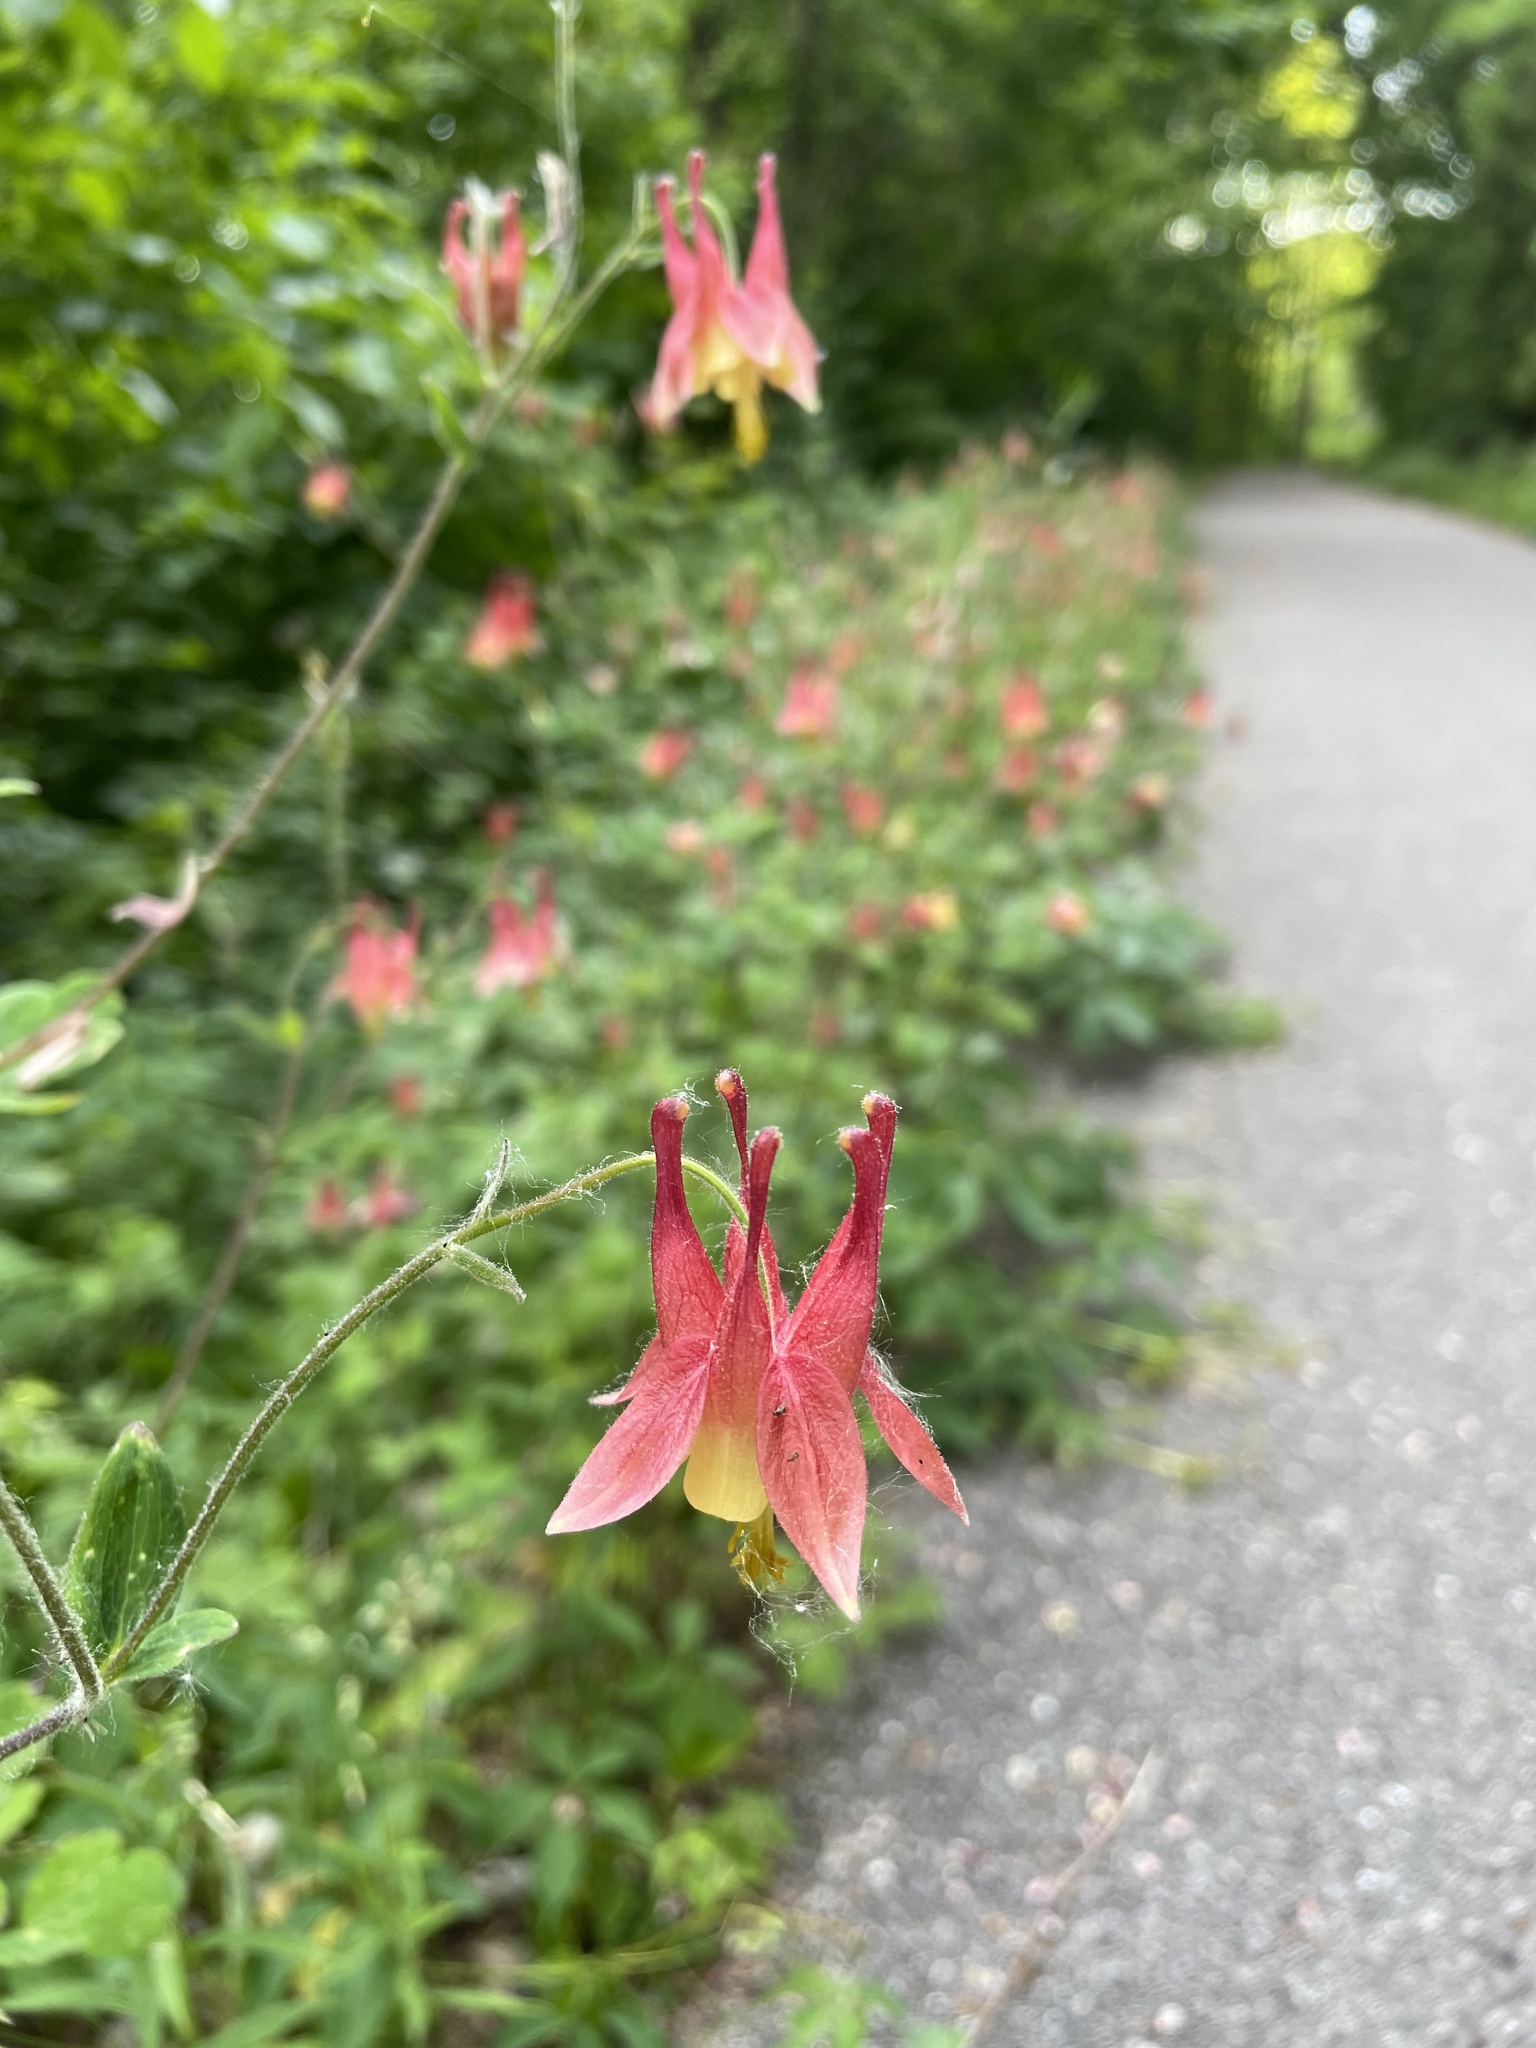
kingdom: Plantae
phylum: Tracheophyta
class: Magnoliopsida
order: Ranunculales
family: Ranunculaceae
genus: Aquilegia
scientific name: Aquilegia canadensis
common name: American columbine
